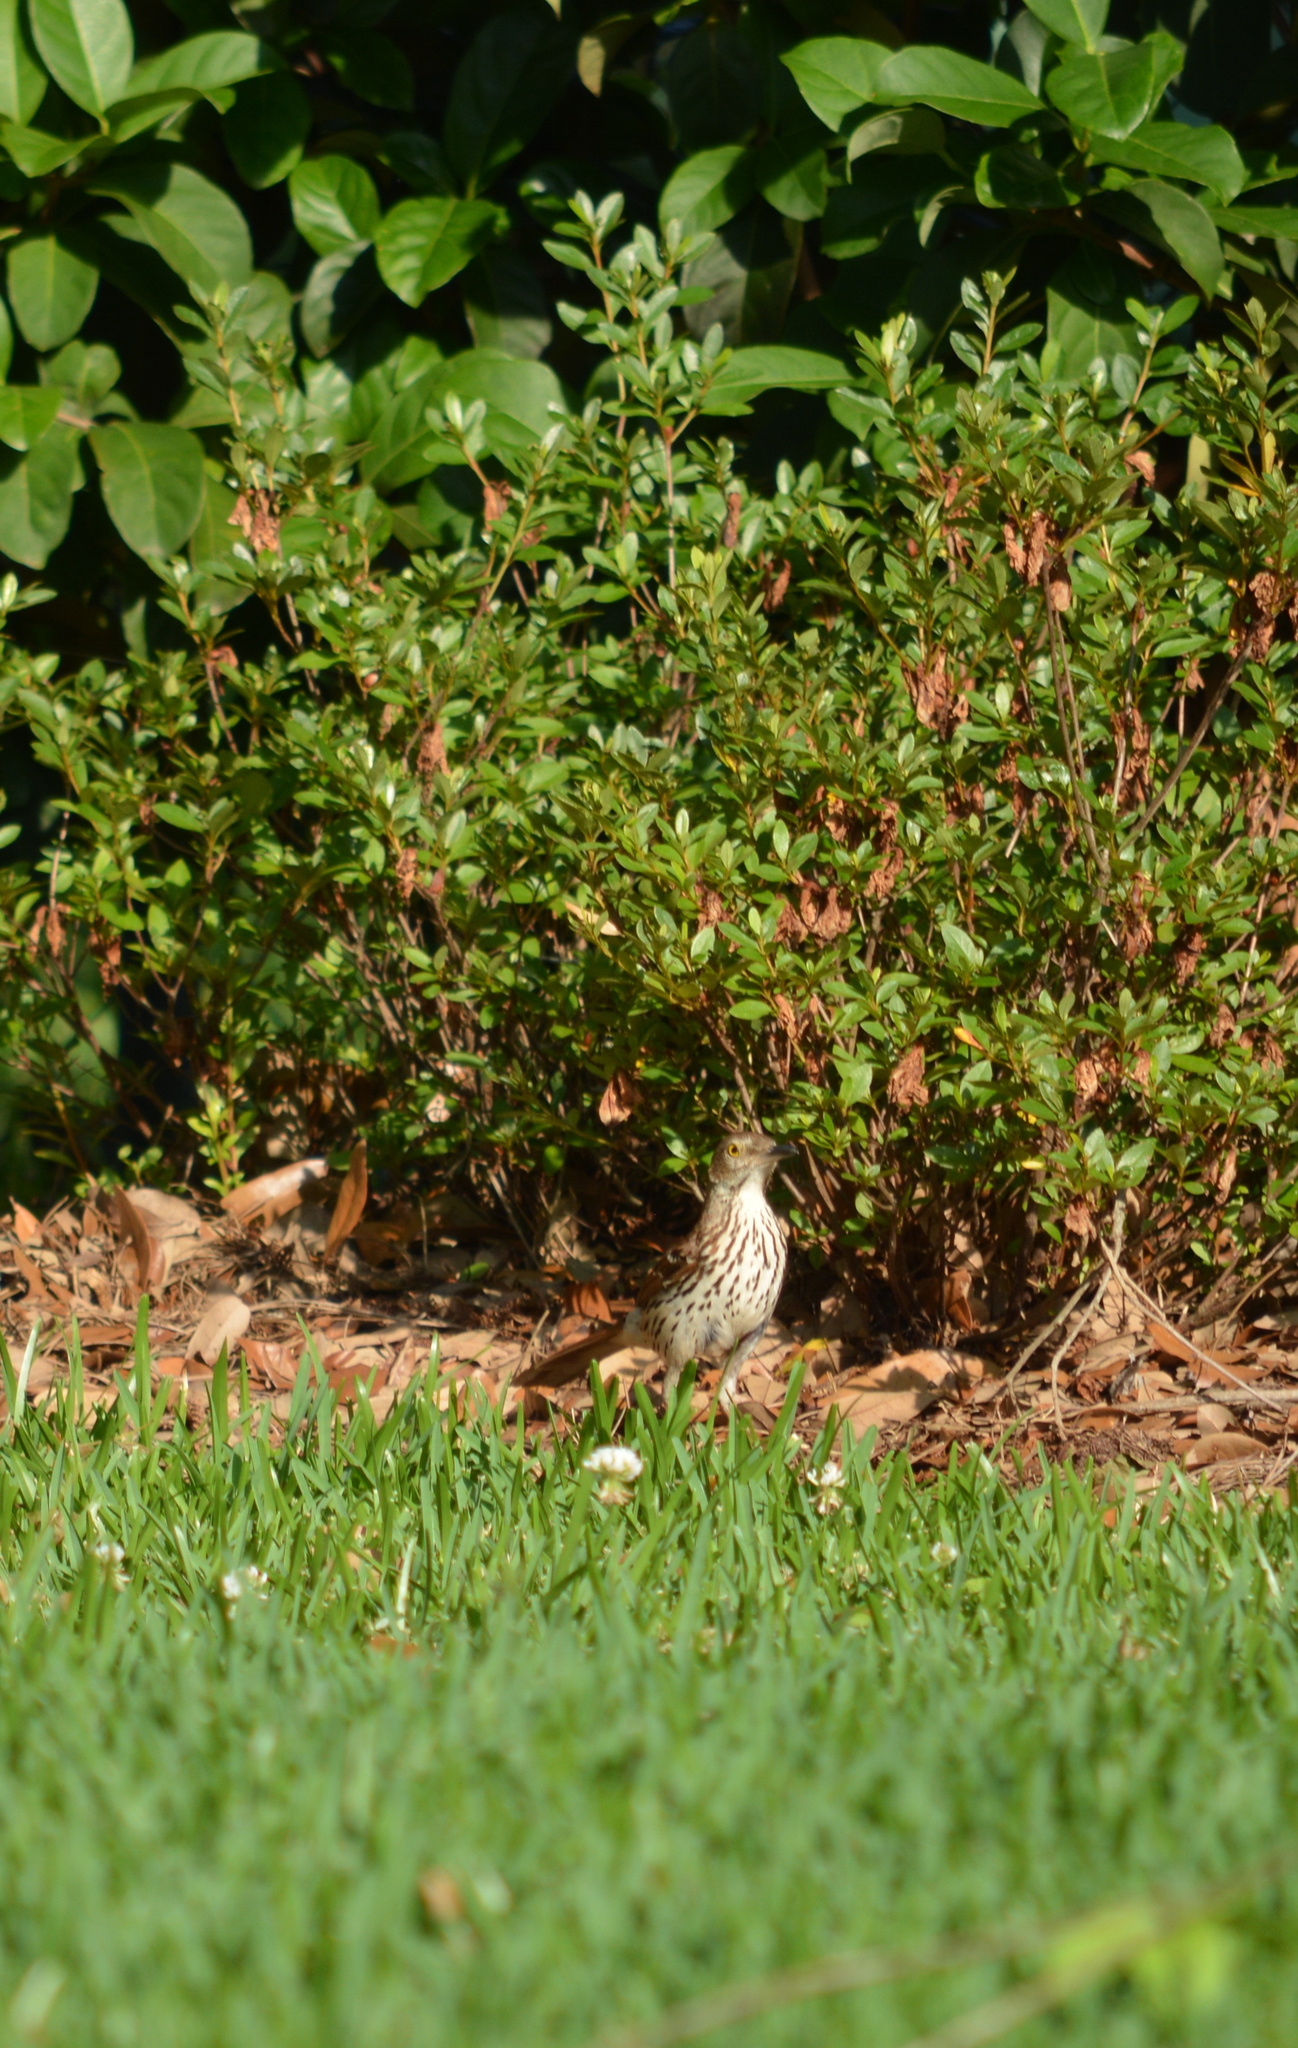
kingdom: Animalia
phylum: Chordata
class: Aves
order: Passeriformes
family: Mimidae
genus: Toxostoma
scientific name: Toxostoma rufum
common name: Brown thrasher
